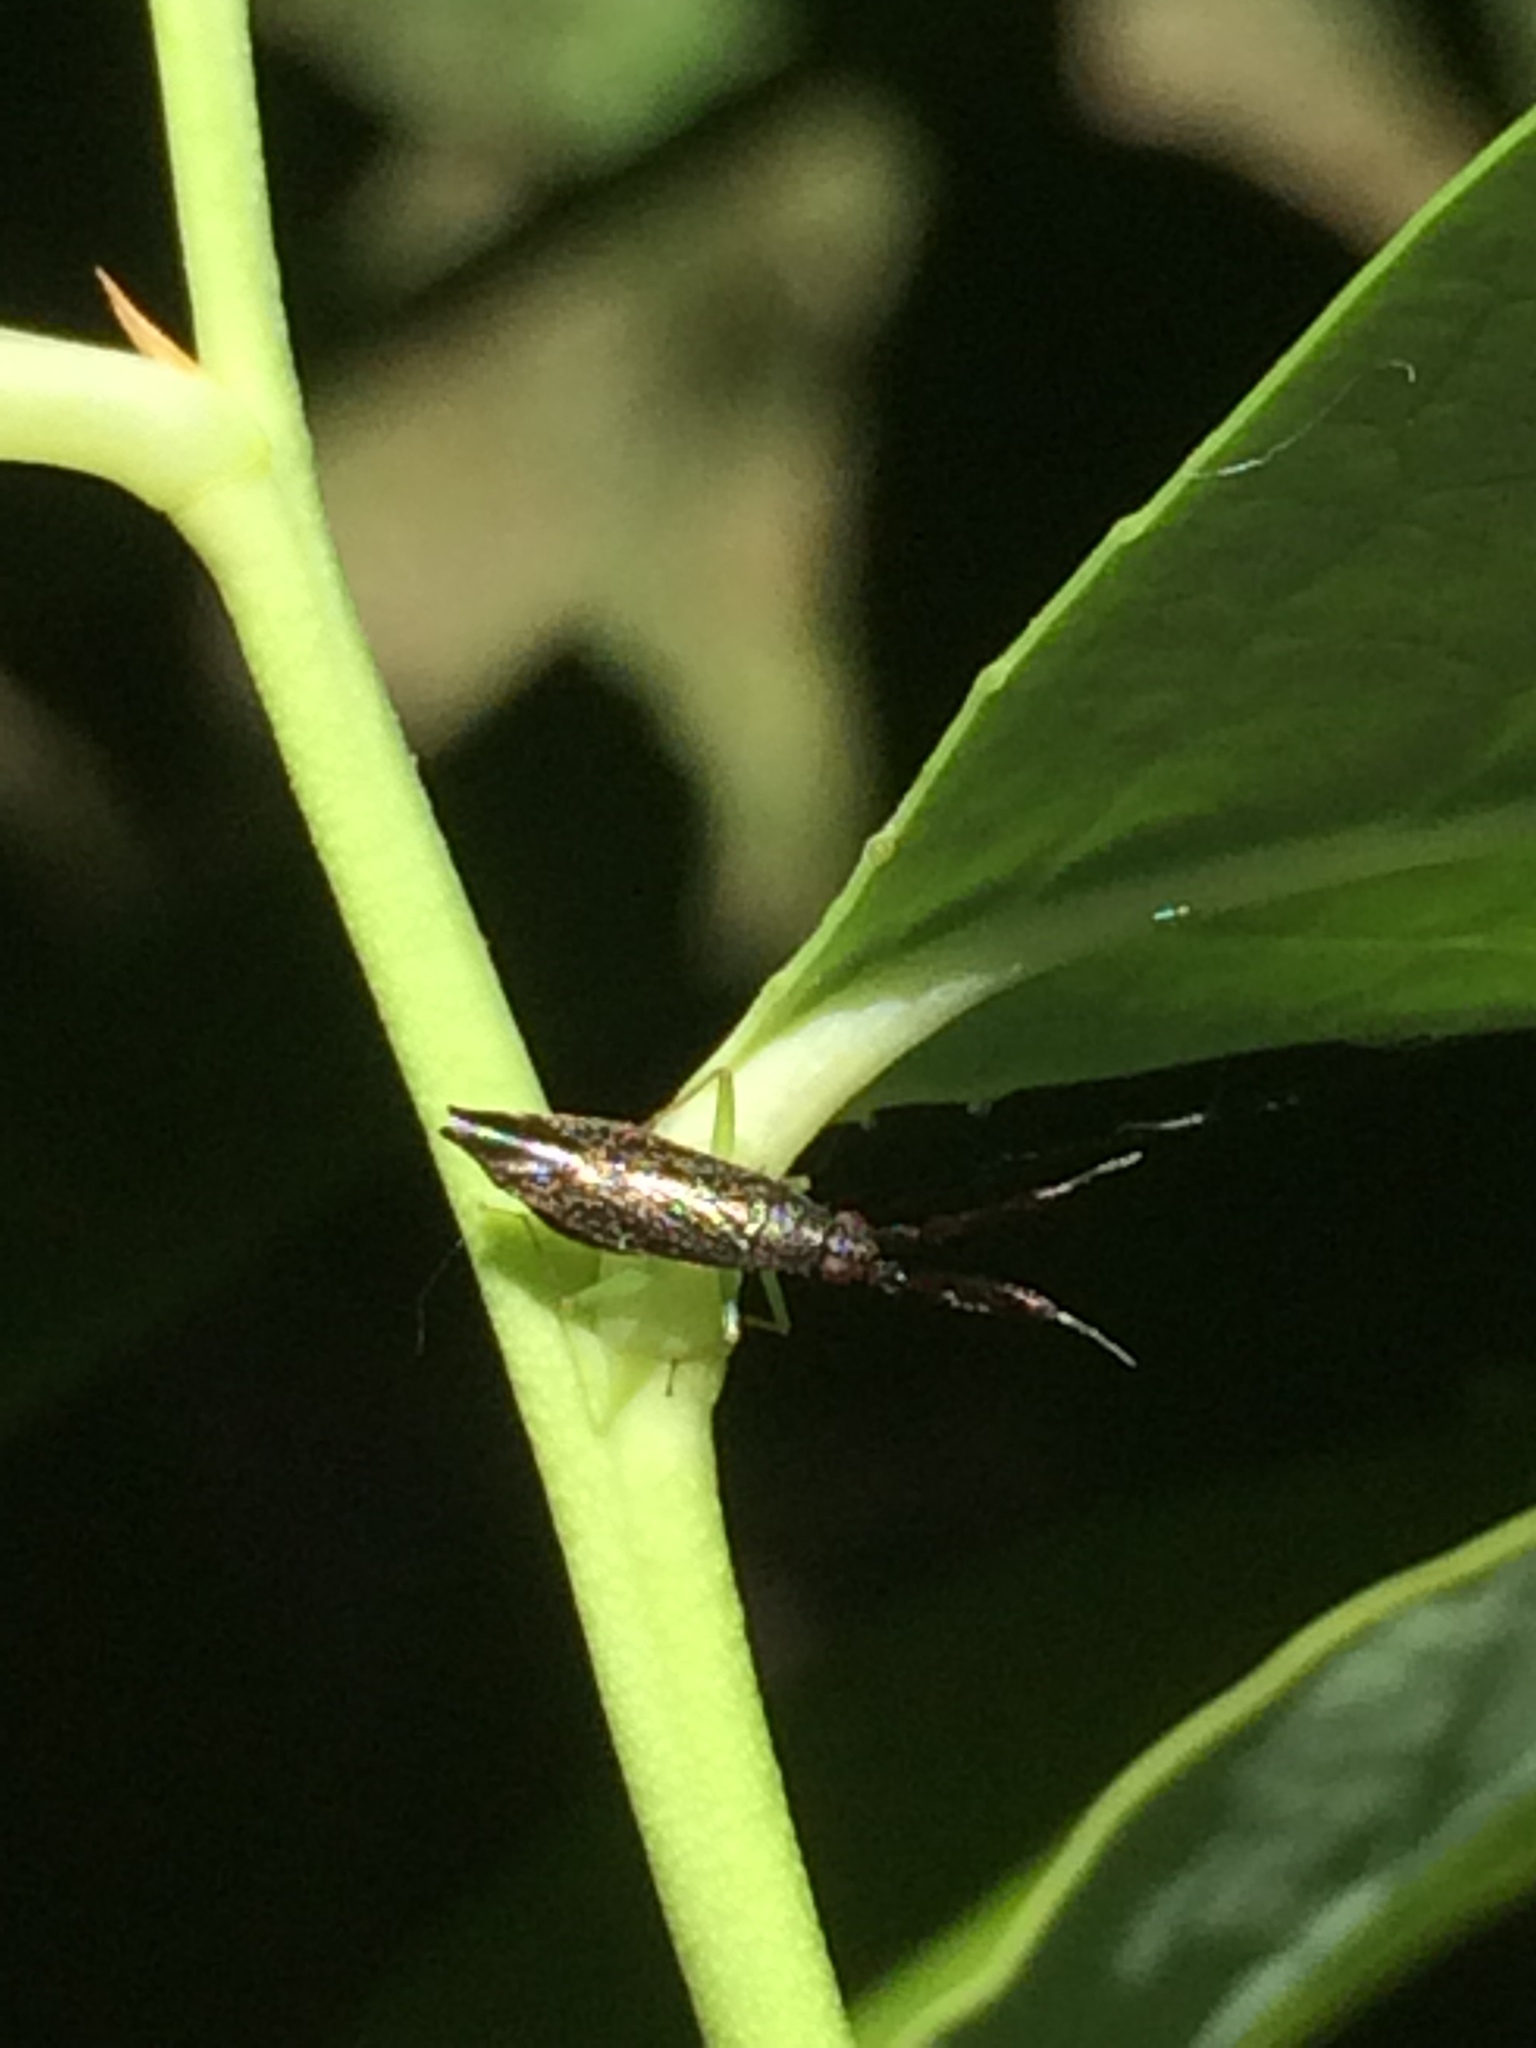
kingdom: Animalia
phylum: Arthropoda
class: Insecta
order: Hemiptera
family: Miridae
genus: Heterotoma
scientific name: Heterotoma planicornis
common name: Plant bug
